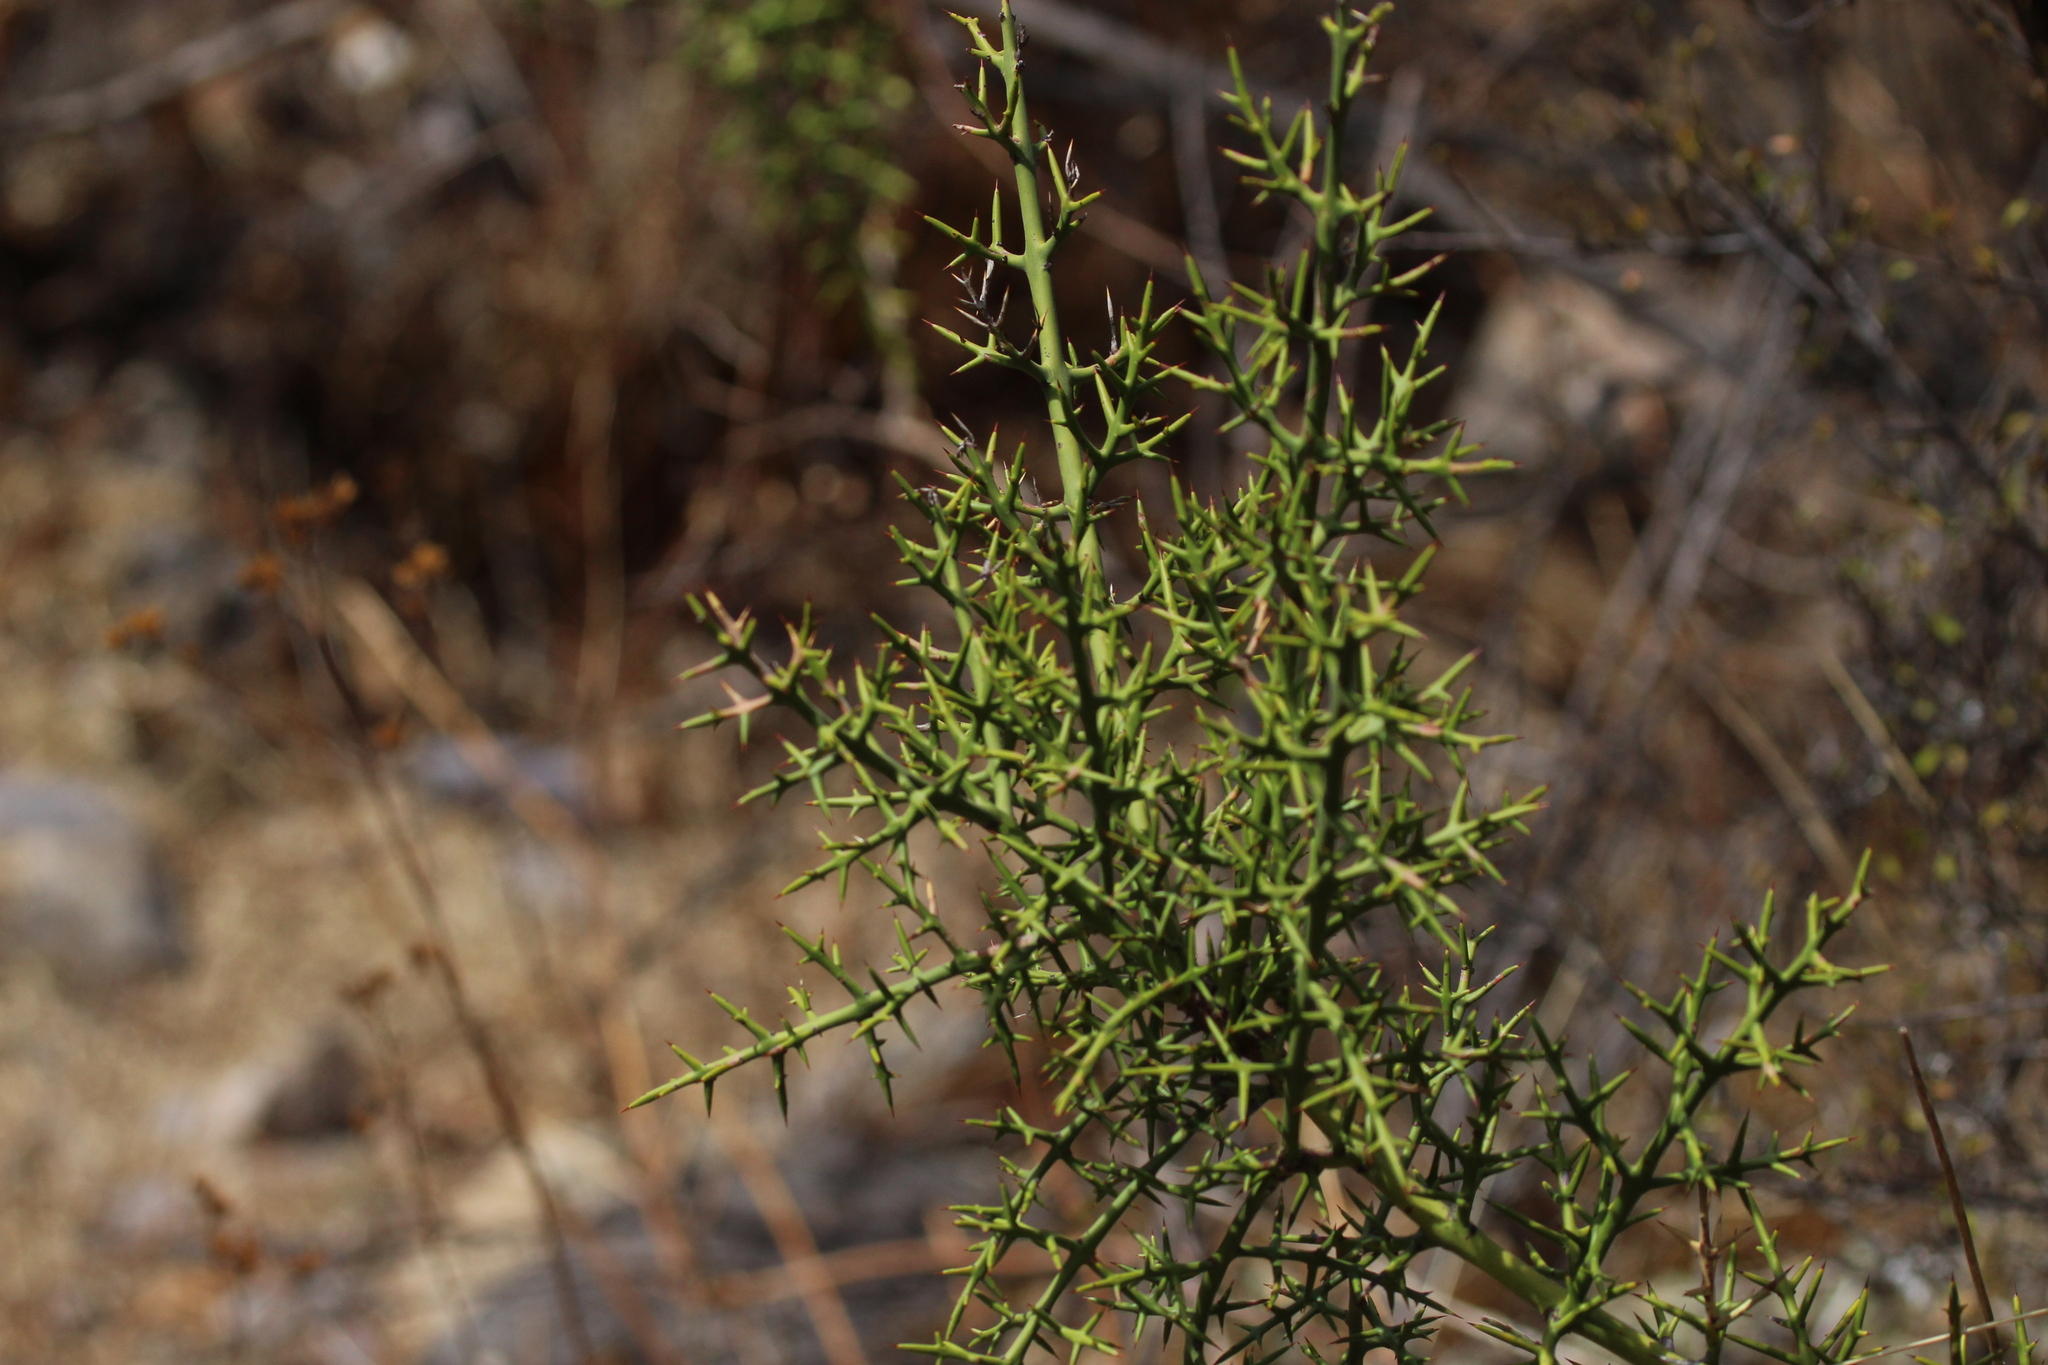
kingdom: Plantae
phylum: Tracheophyta
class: Magnoliopsida
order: Rosales
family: Rhamnaceae
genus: Colletia
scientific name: Colletia spinosissima
